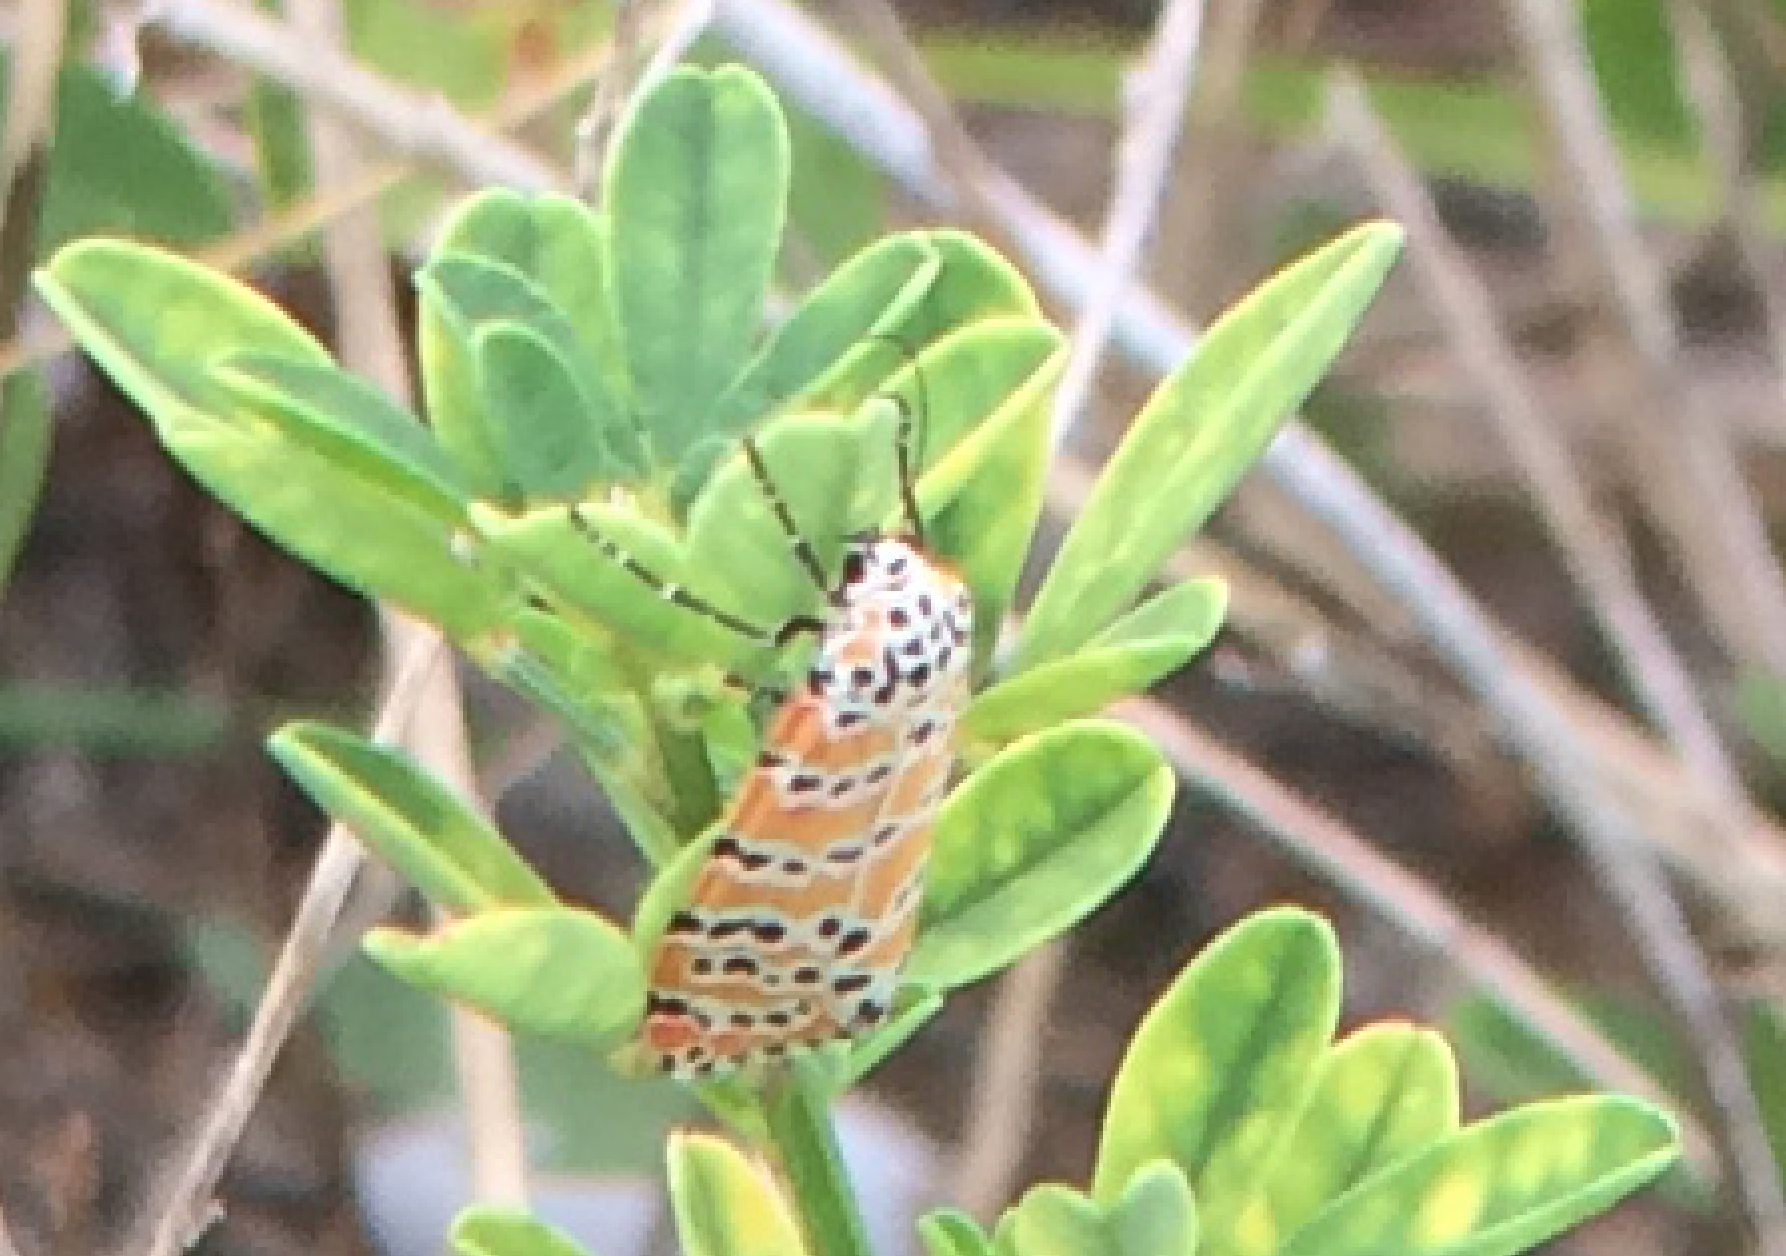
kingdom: Animalia
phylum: Arthropoda
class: Insecta
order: Lepidoptera
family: Erebidae
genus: Utetheisa
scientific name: Utetheisa ornatrix
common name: Beautiful utetheisa
